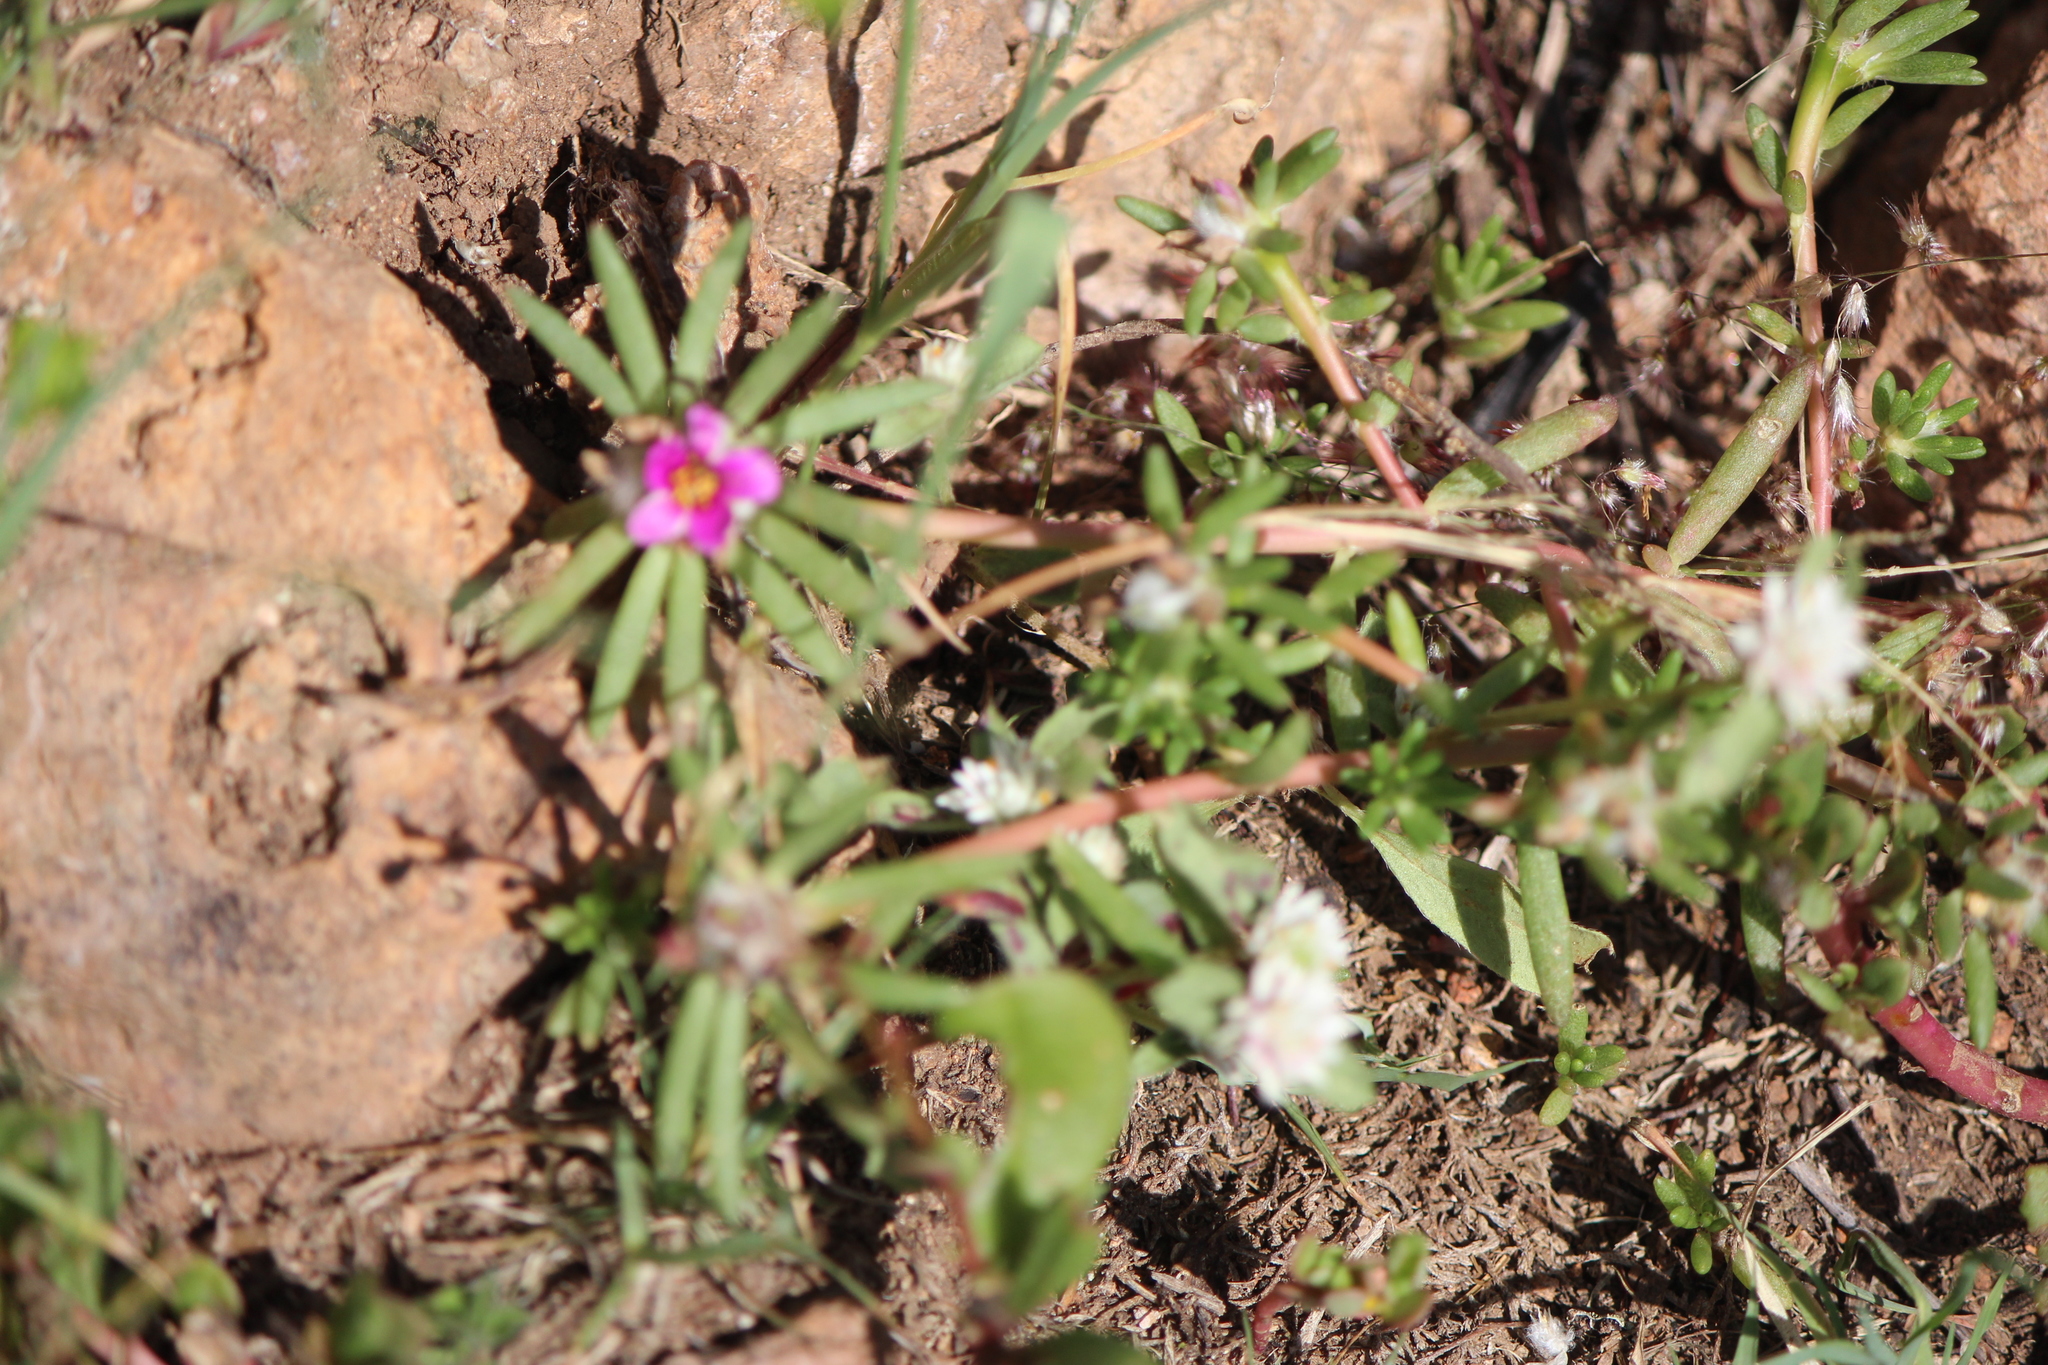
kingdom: Plantae
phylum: Tracheophyta
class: Magnoliopsida
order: Caryophyllales
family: Portulacaceae
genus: Portulaca
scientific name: Portulaca pilosa
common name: Kiss me quick
